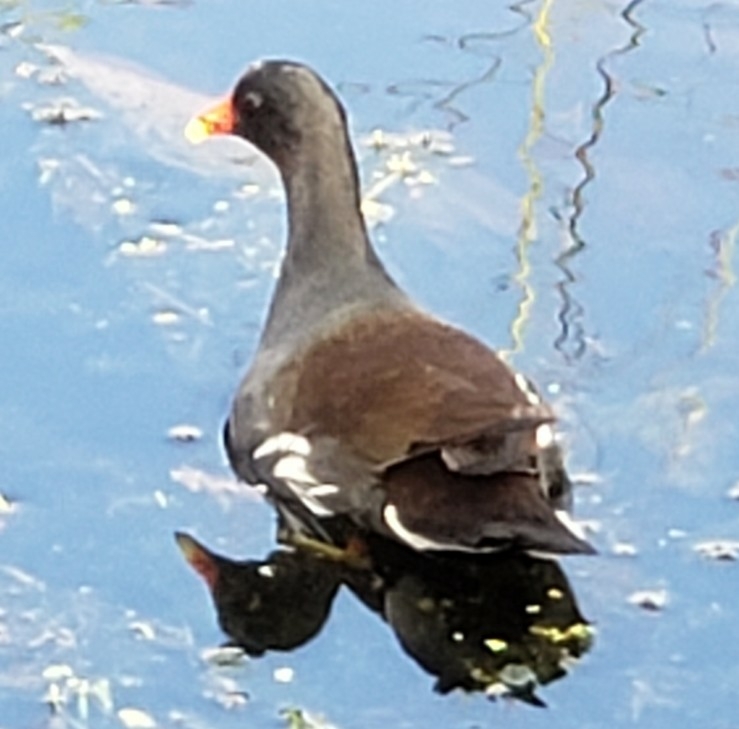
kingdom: Animalia
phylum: Chordata
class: Aves
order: Gruiformes
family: Rallidae
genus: Gallinula
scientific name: Gallinula chloropus
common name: Common moorhen
